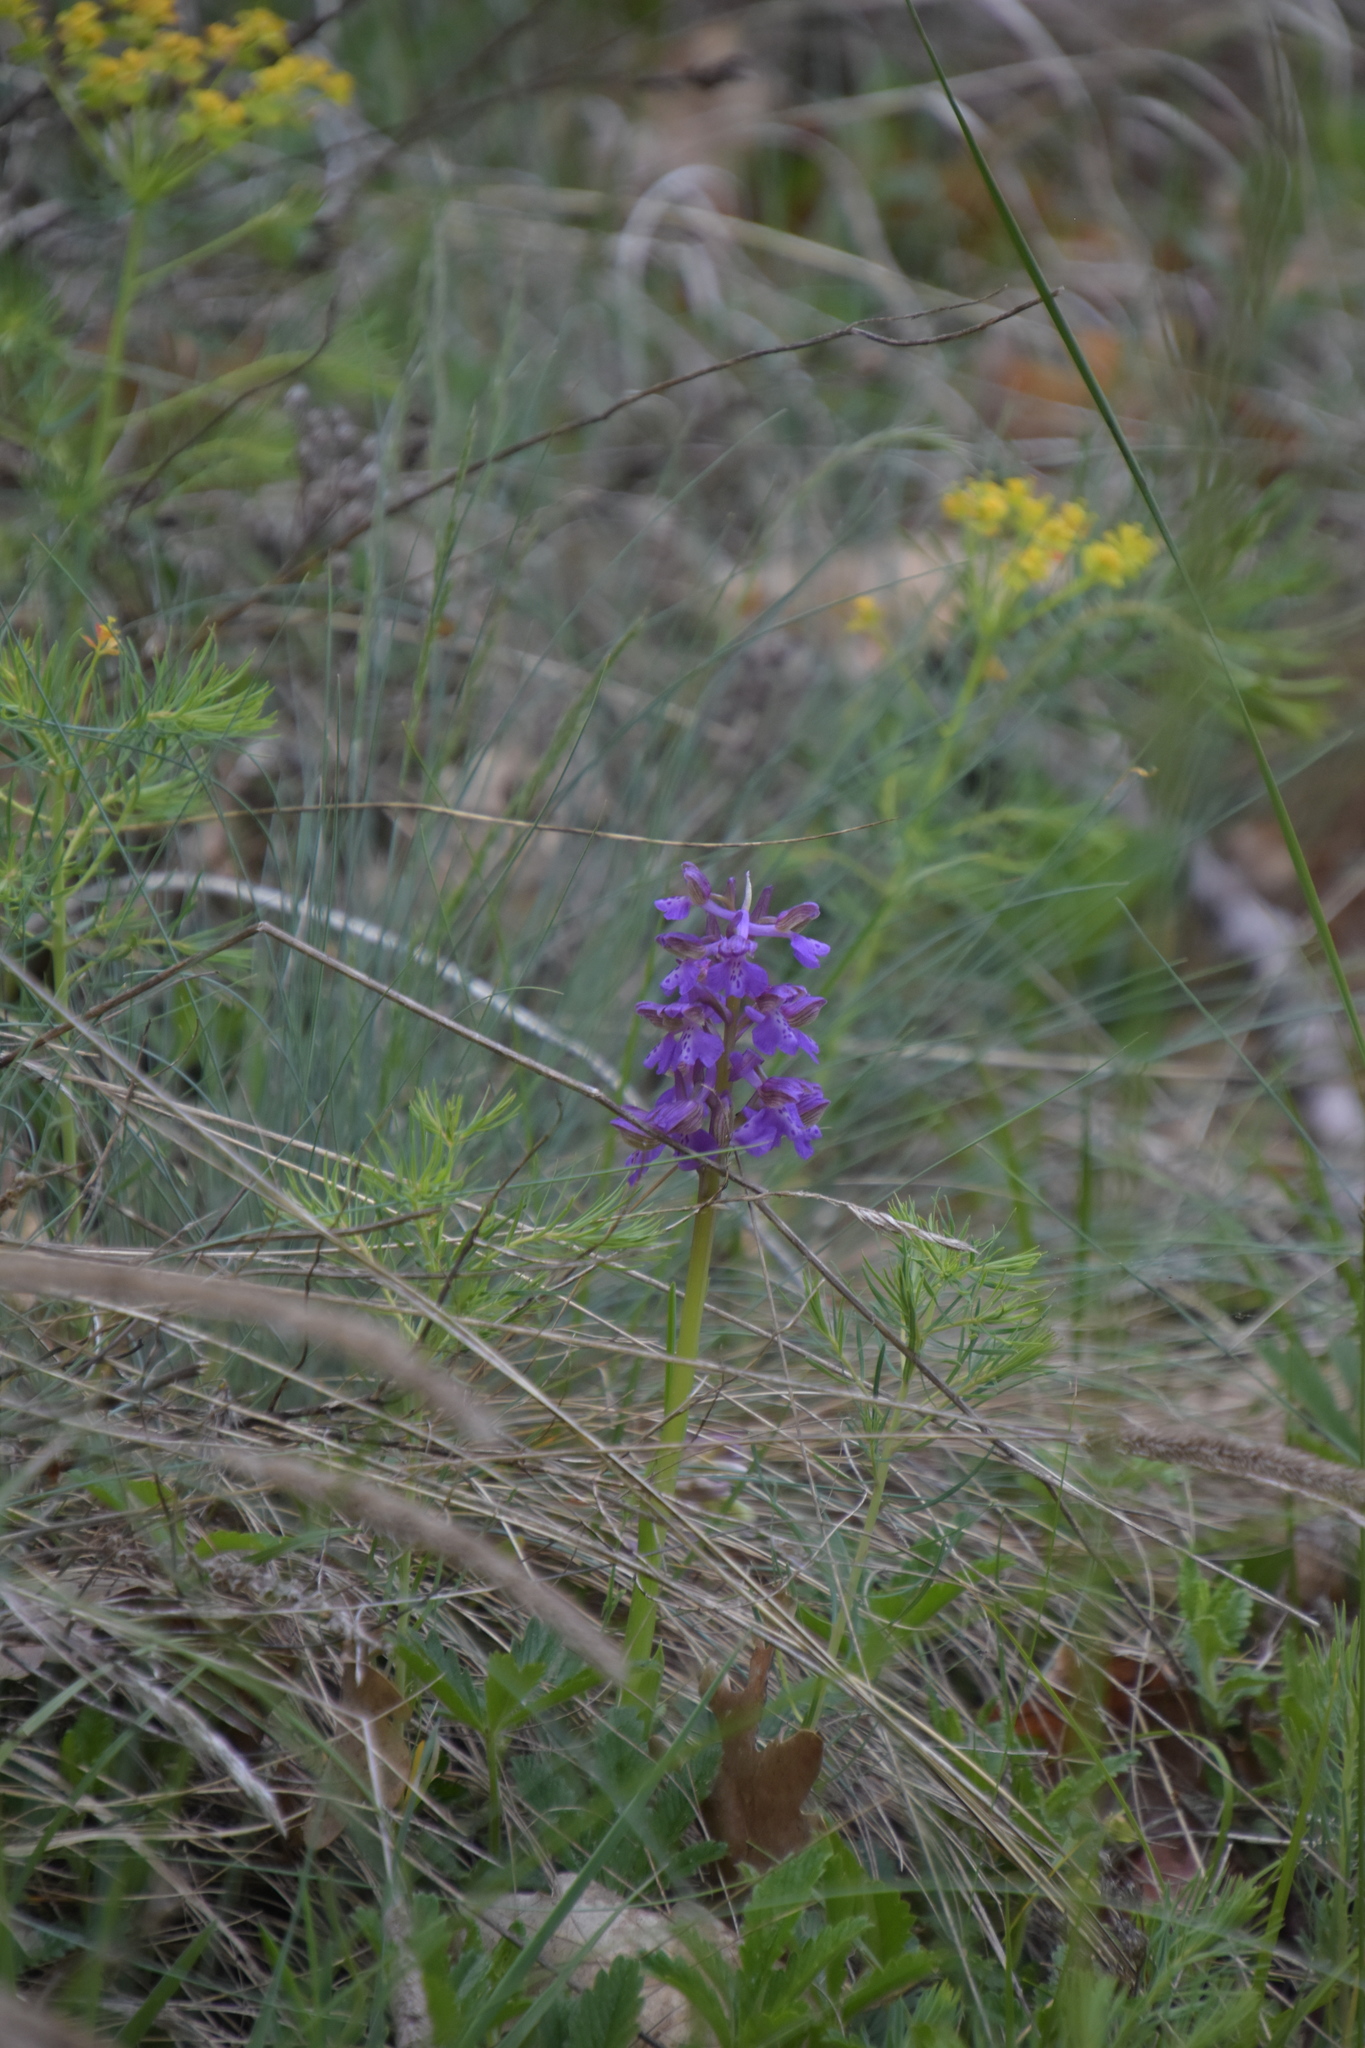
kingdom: Plantae
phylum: Tracheophyta
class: Liliopsida
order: Asparagales
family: Orchidaceae
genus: Anacamptis
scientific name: Anacamptis morio
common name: Green-winged orchid
